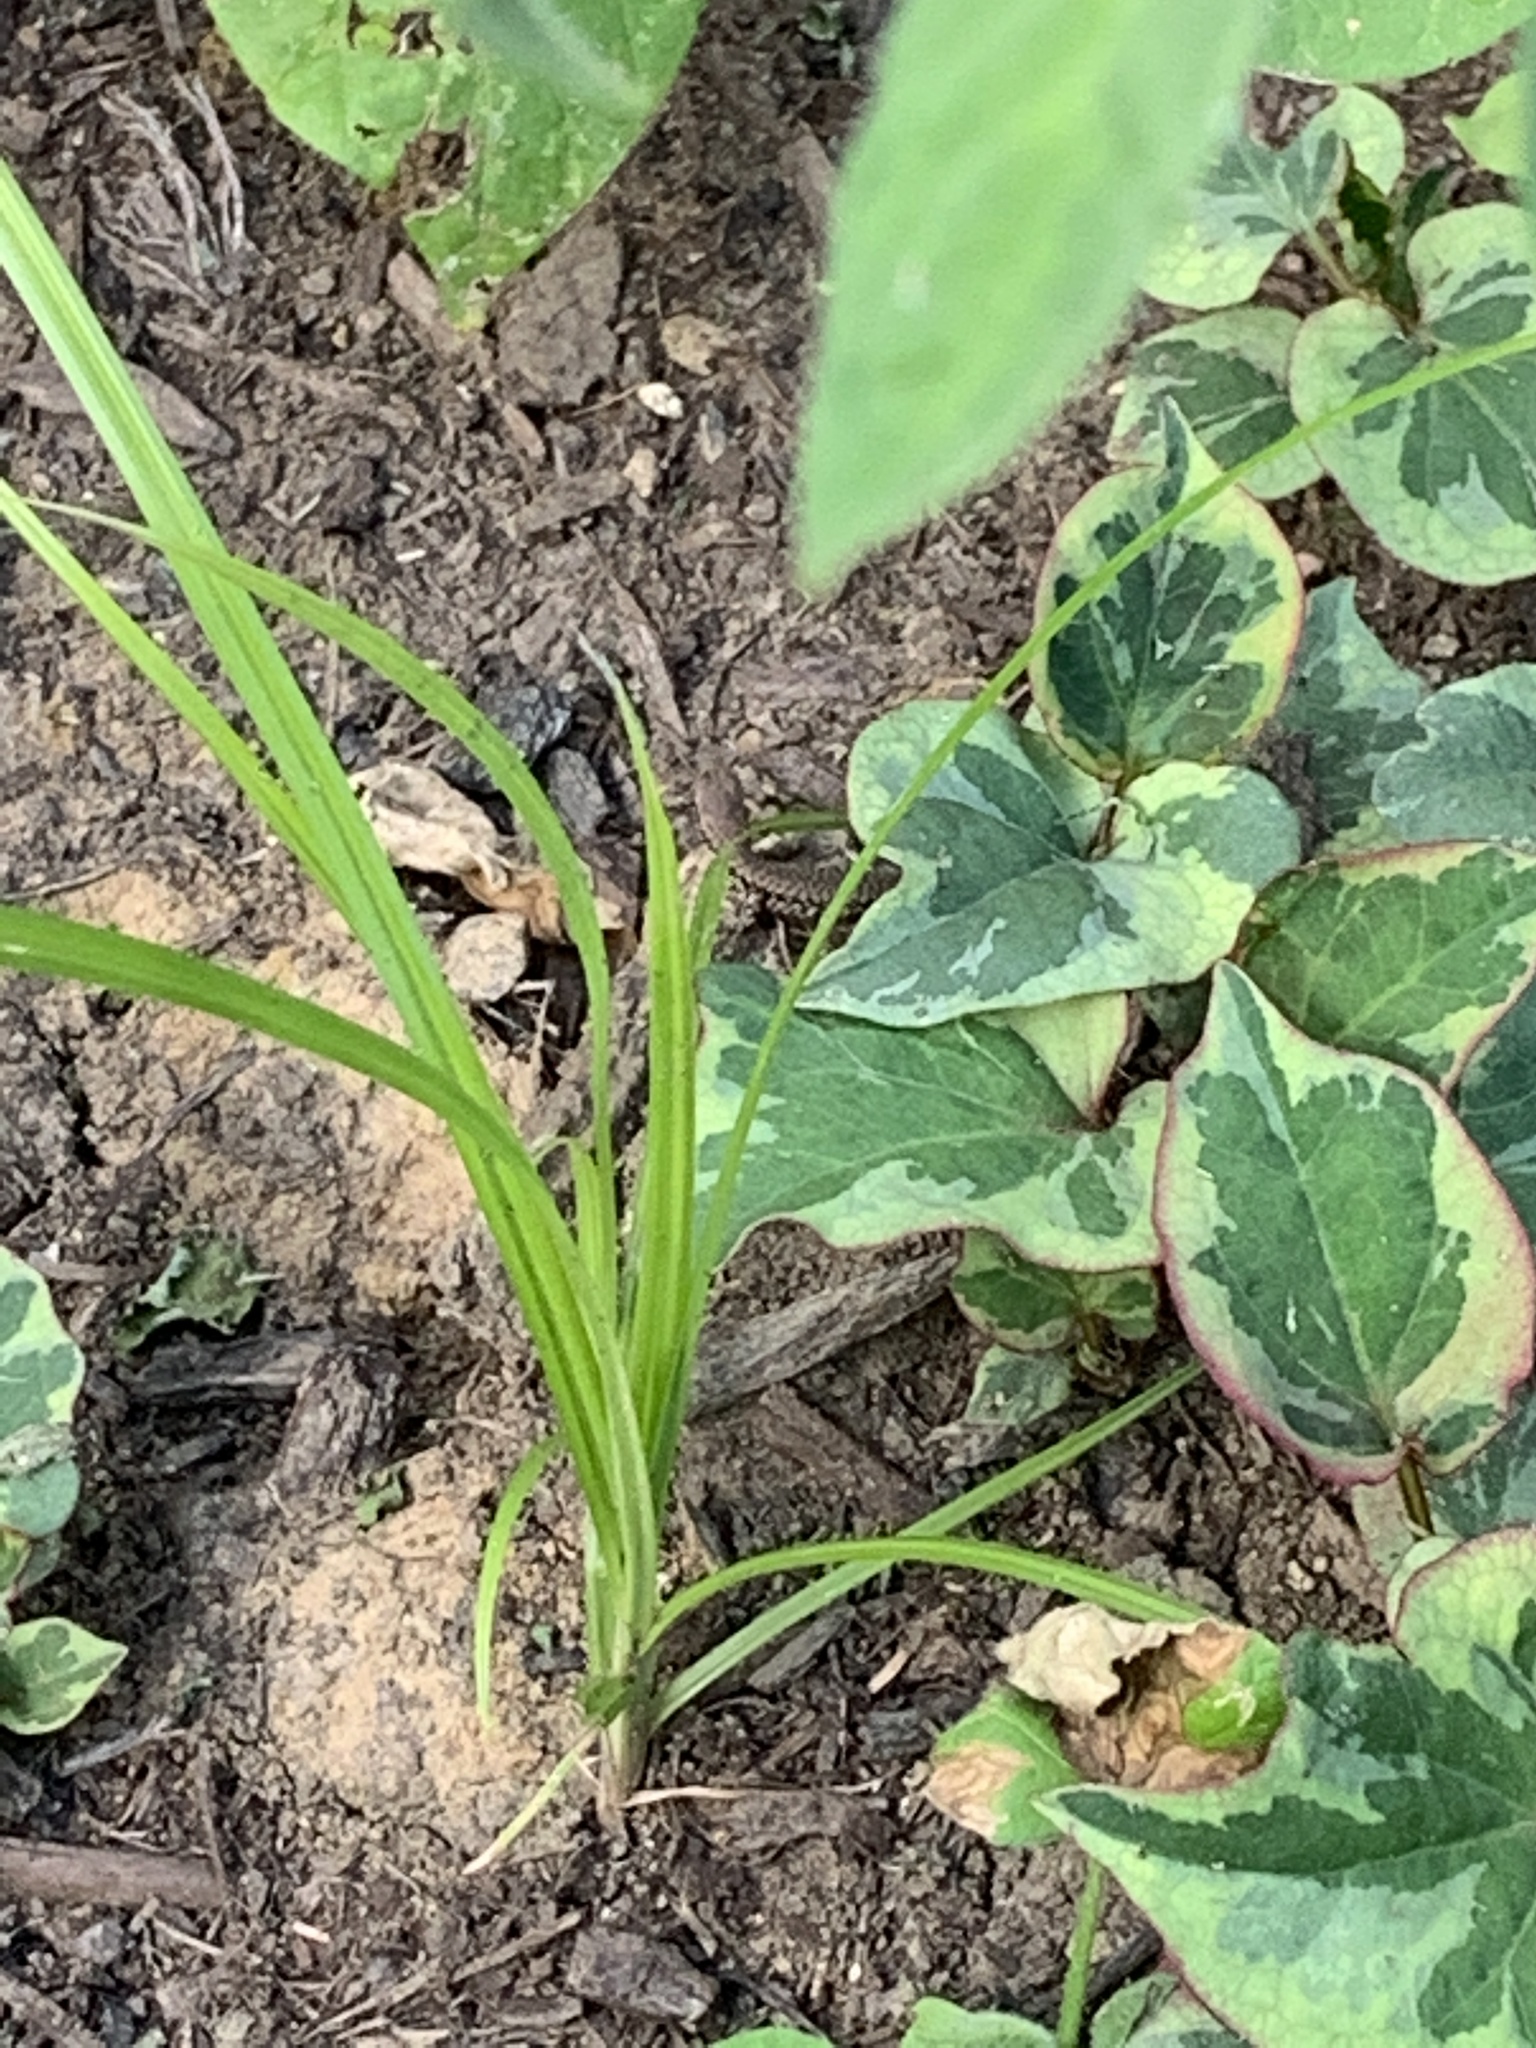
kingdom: Animalia
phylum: Chordata
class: Squamata
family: Lacertidae
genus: Podarcis
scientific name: Podarcis muralis
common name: Common wall lizard
